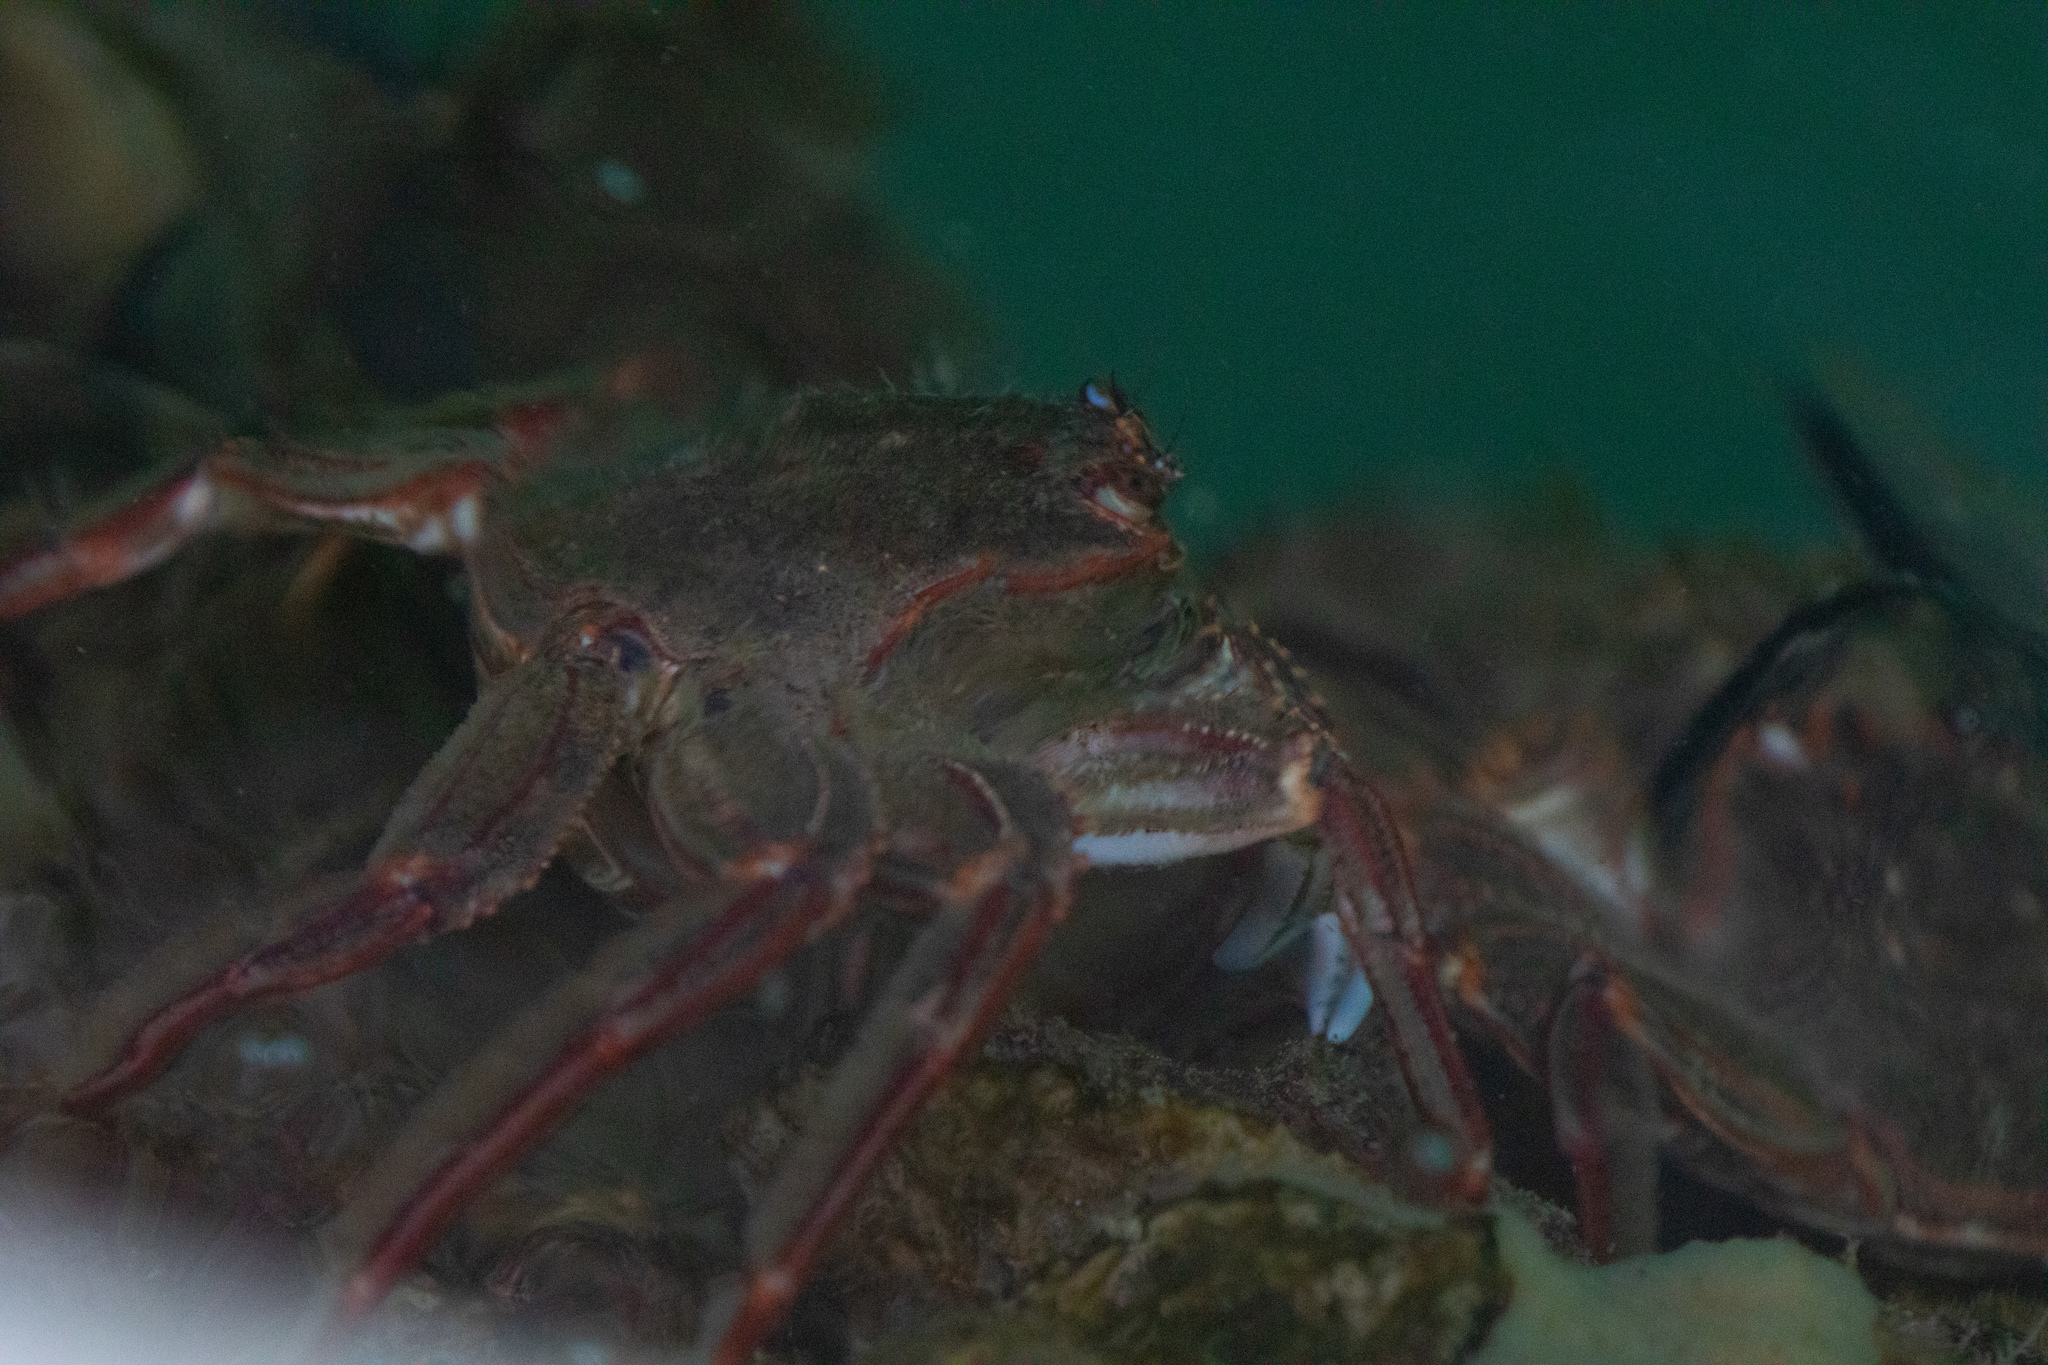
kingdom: Animalia
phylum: Arthropoda
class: Malacostraca
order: Decapoda
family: Plagusiidae
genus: Guinusia
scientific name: Guinusia chabrus
